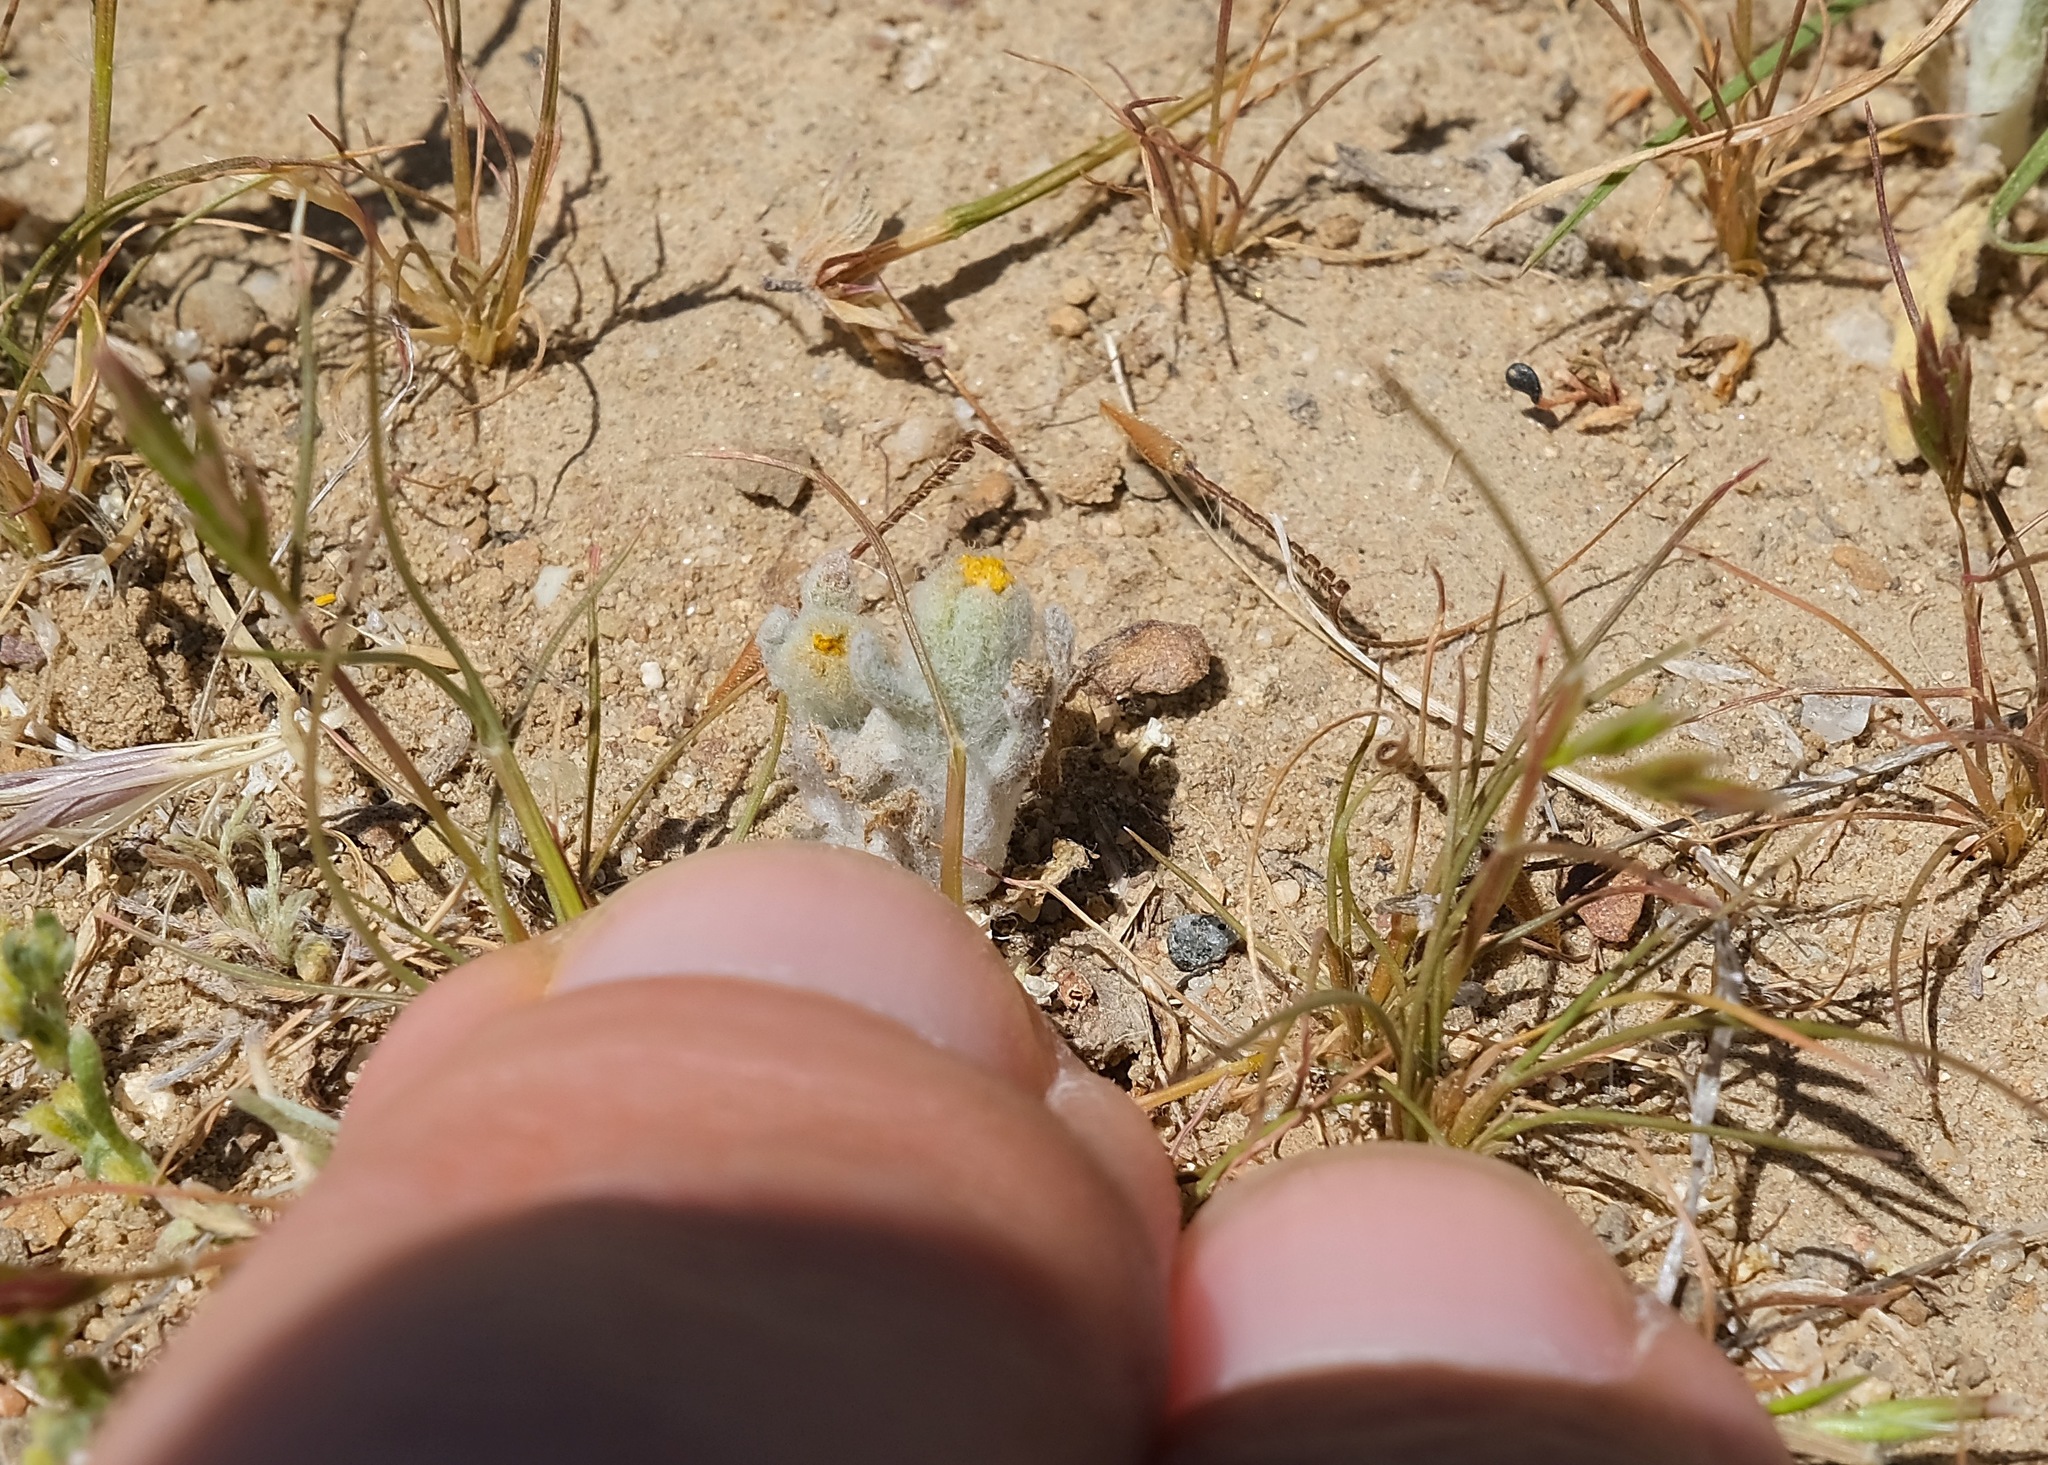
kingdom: Plantae
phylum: Tracheophyta
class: Magnoliopsida
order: Asterales
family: Asteraceae
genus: Monolopia
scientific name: Monolopia congdonii
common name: San joaquin woolly-threads
